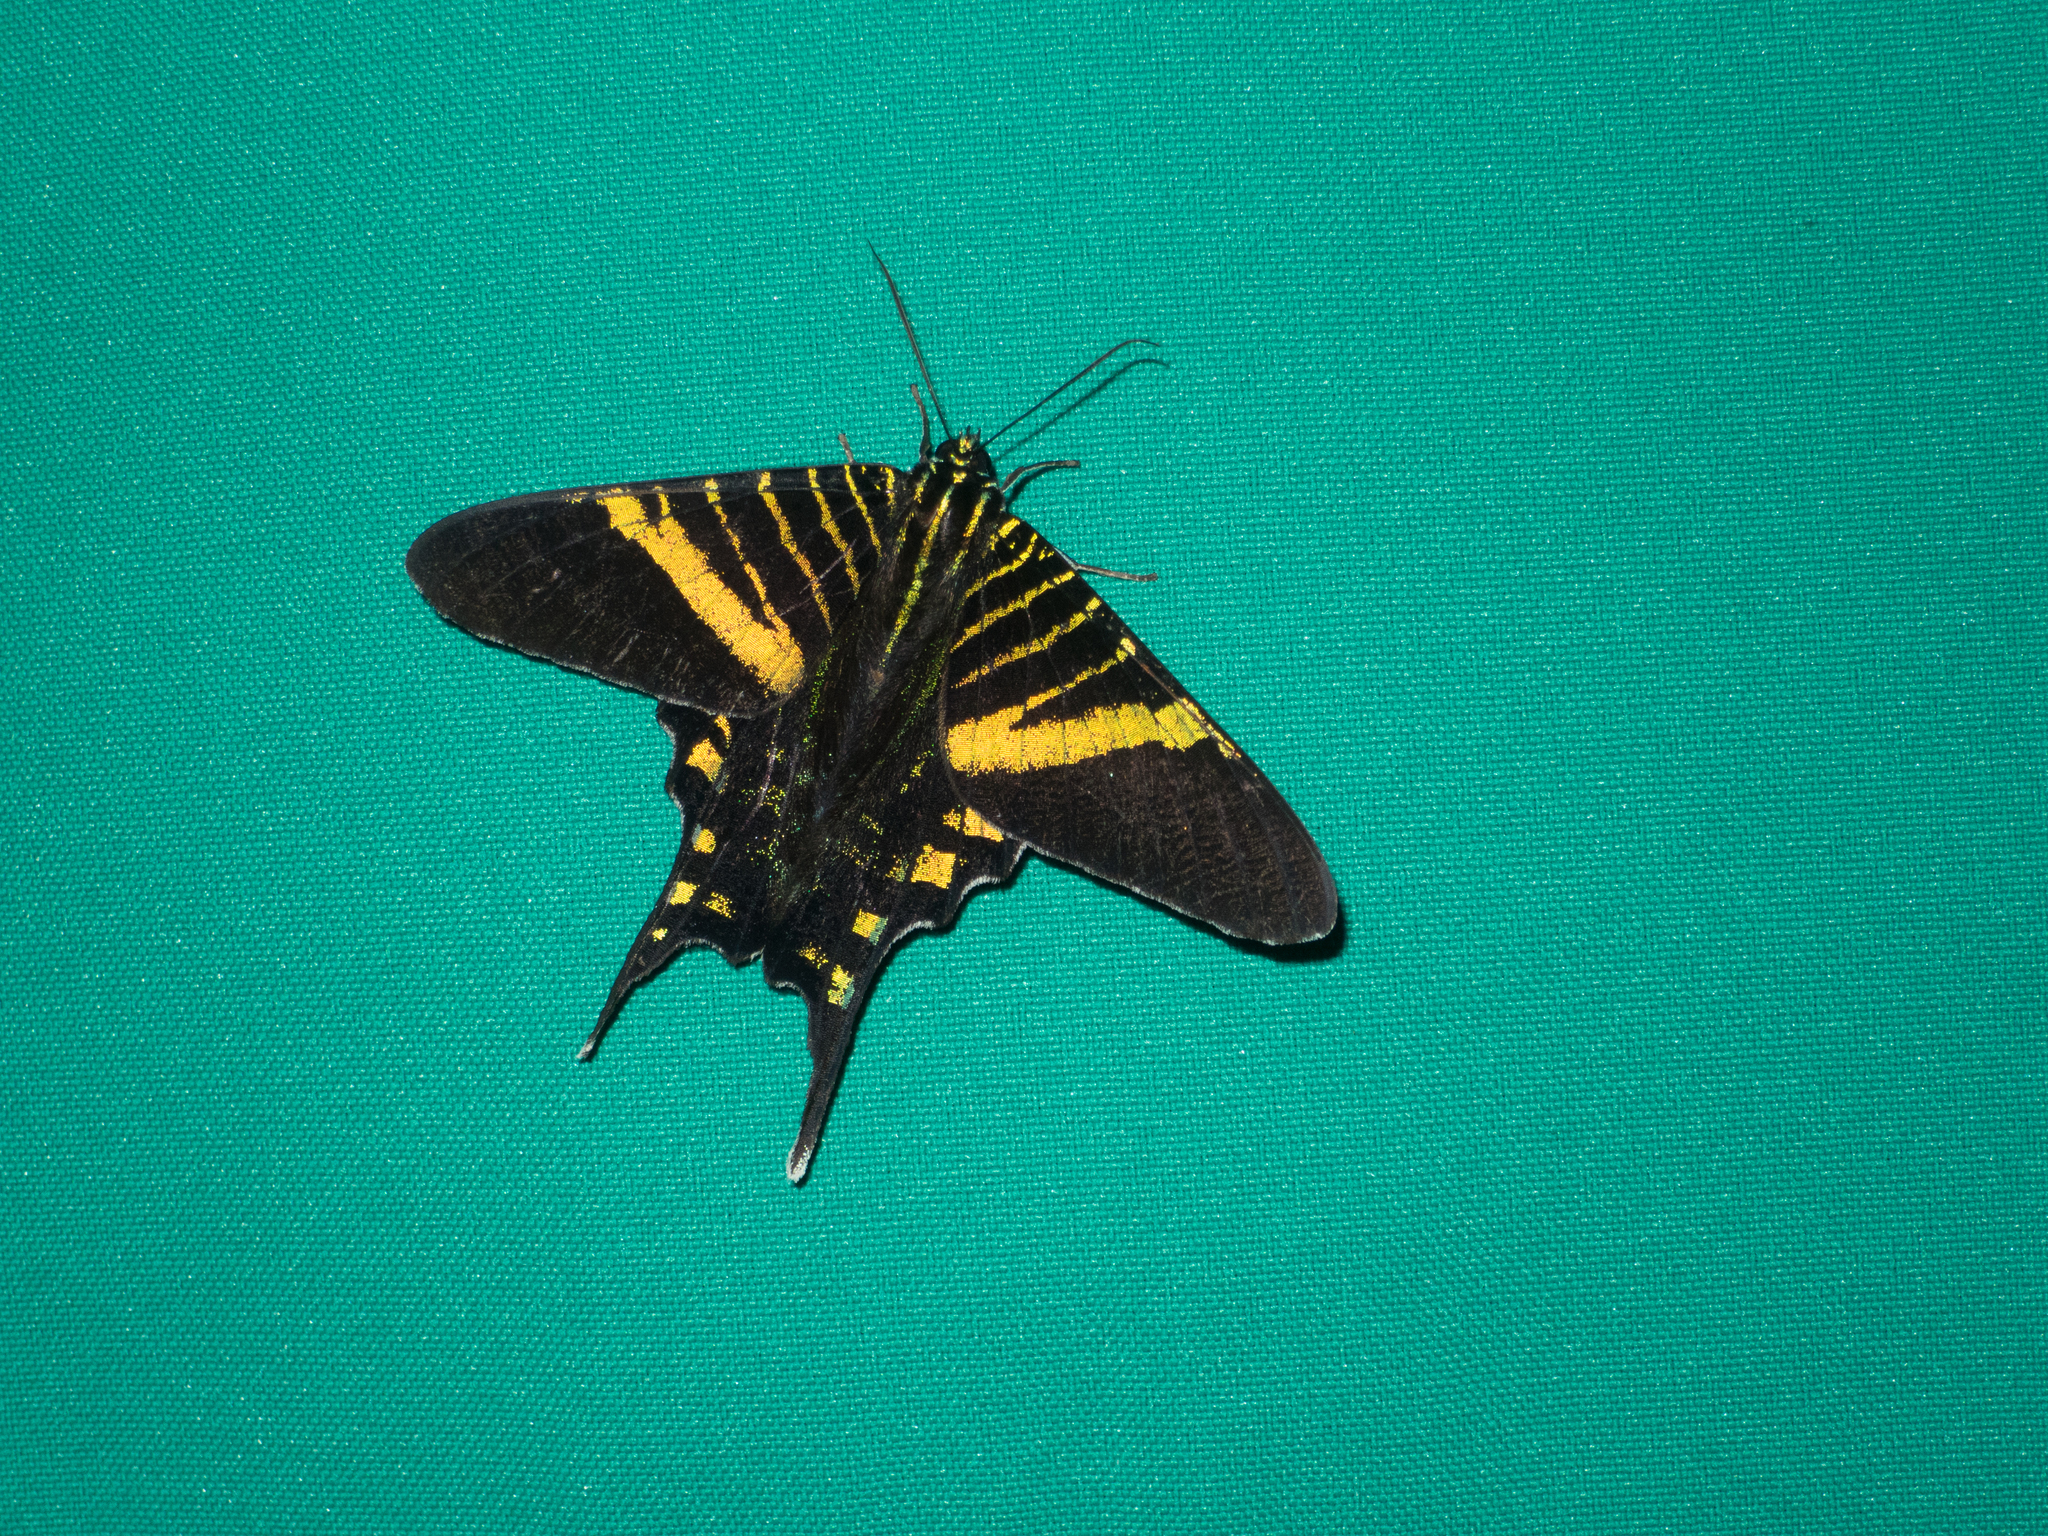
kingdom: Animalia
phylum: Arthropoda
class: Insecta
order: Lepidoptera
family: Uraniidae
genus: Urania
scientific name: Urania fulgens
